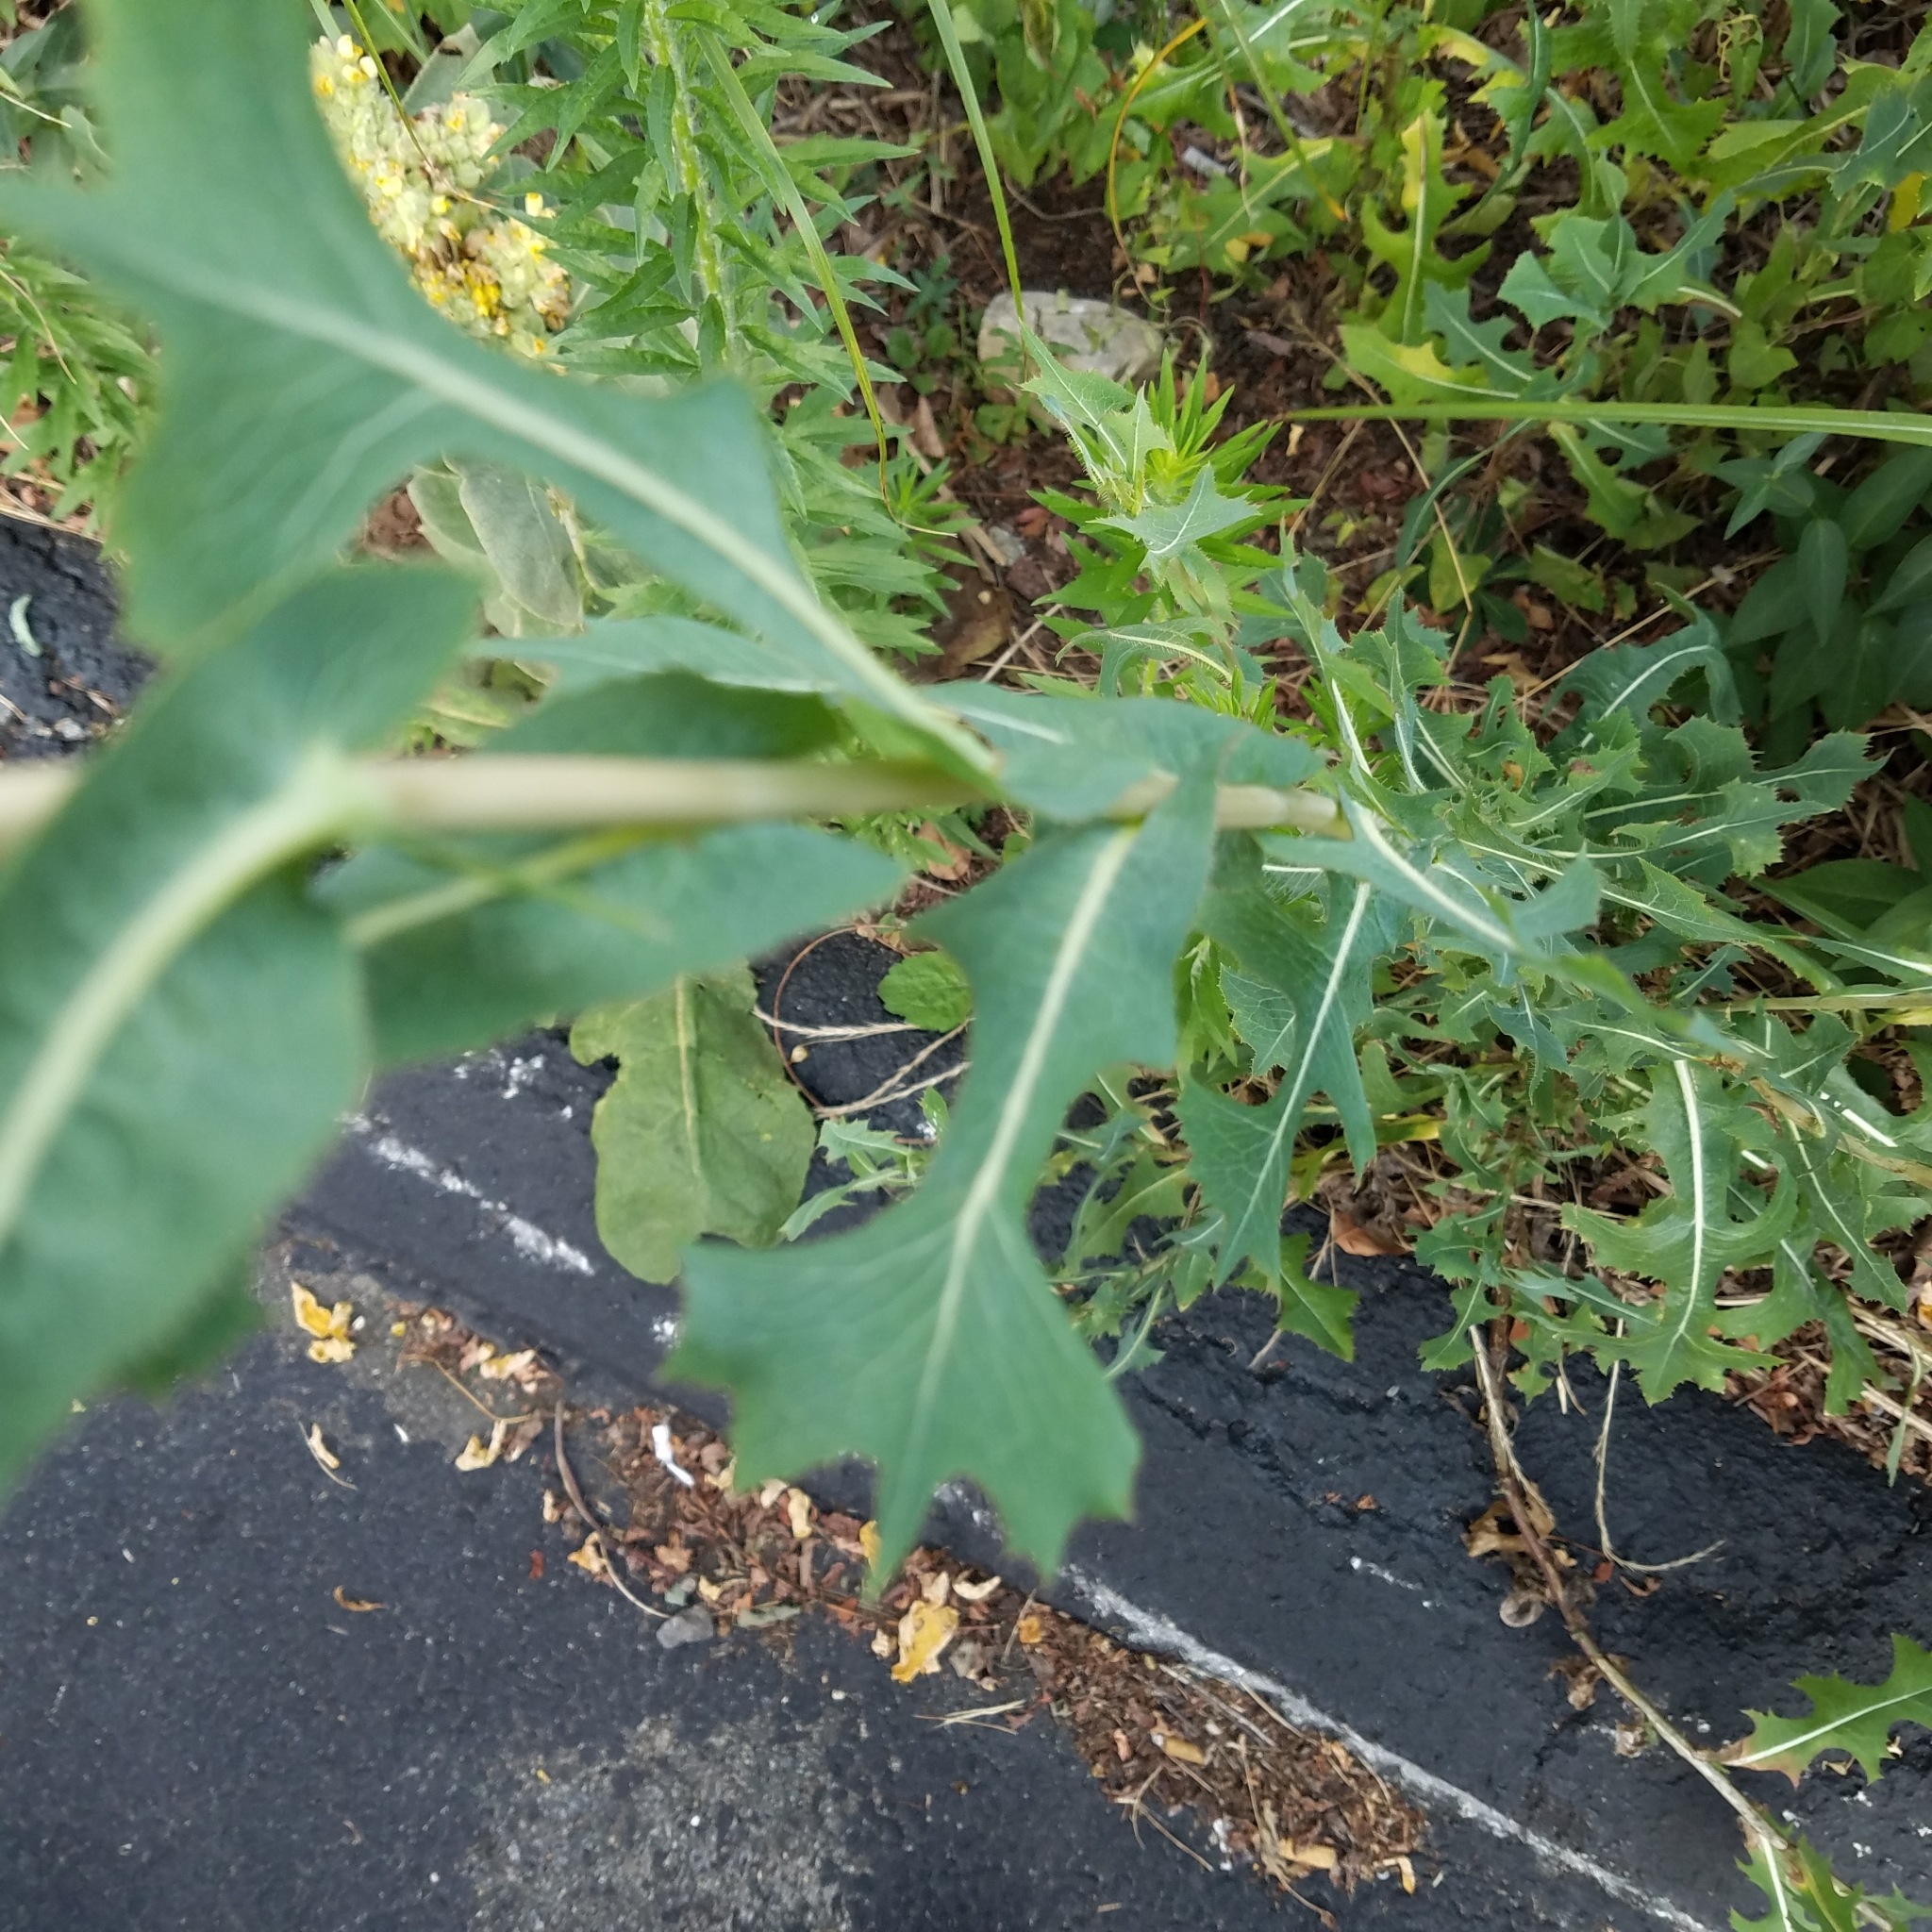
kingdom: Plantae
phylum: Tracheophyta
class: Magnoliopsida
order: Asterales
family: Asteraceae
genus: Lactuca
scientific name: Lactuca serriola
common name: Prickly lettuce
